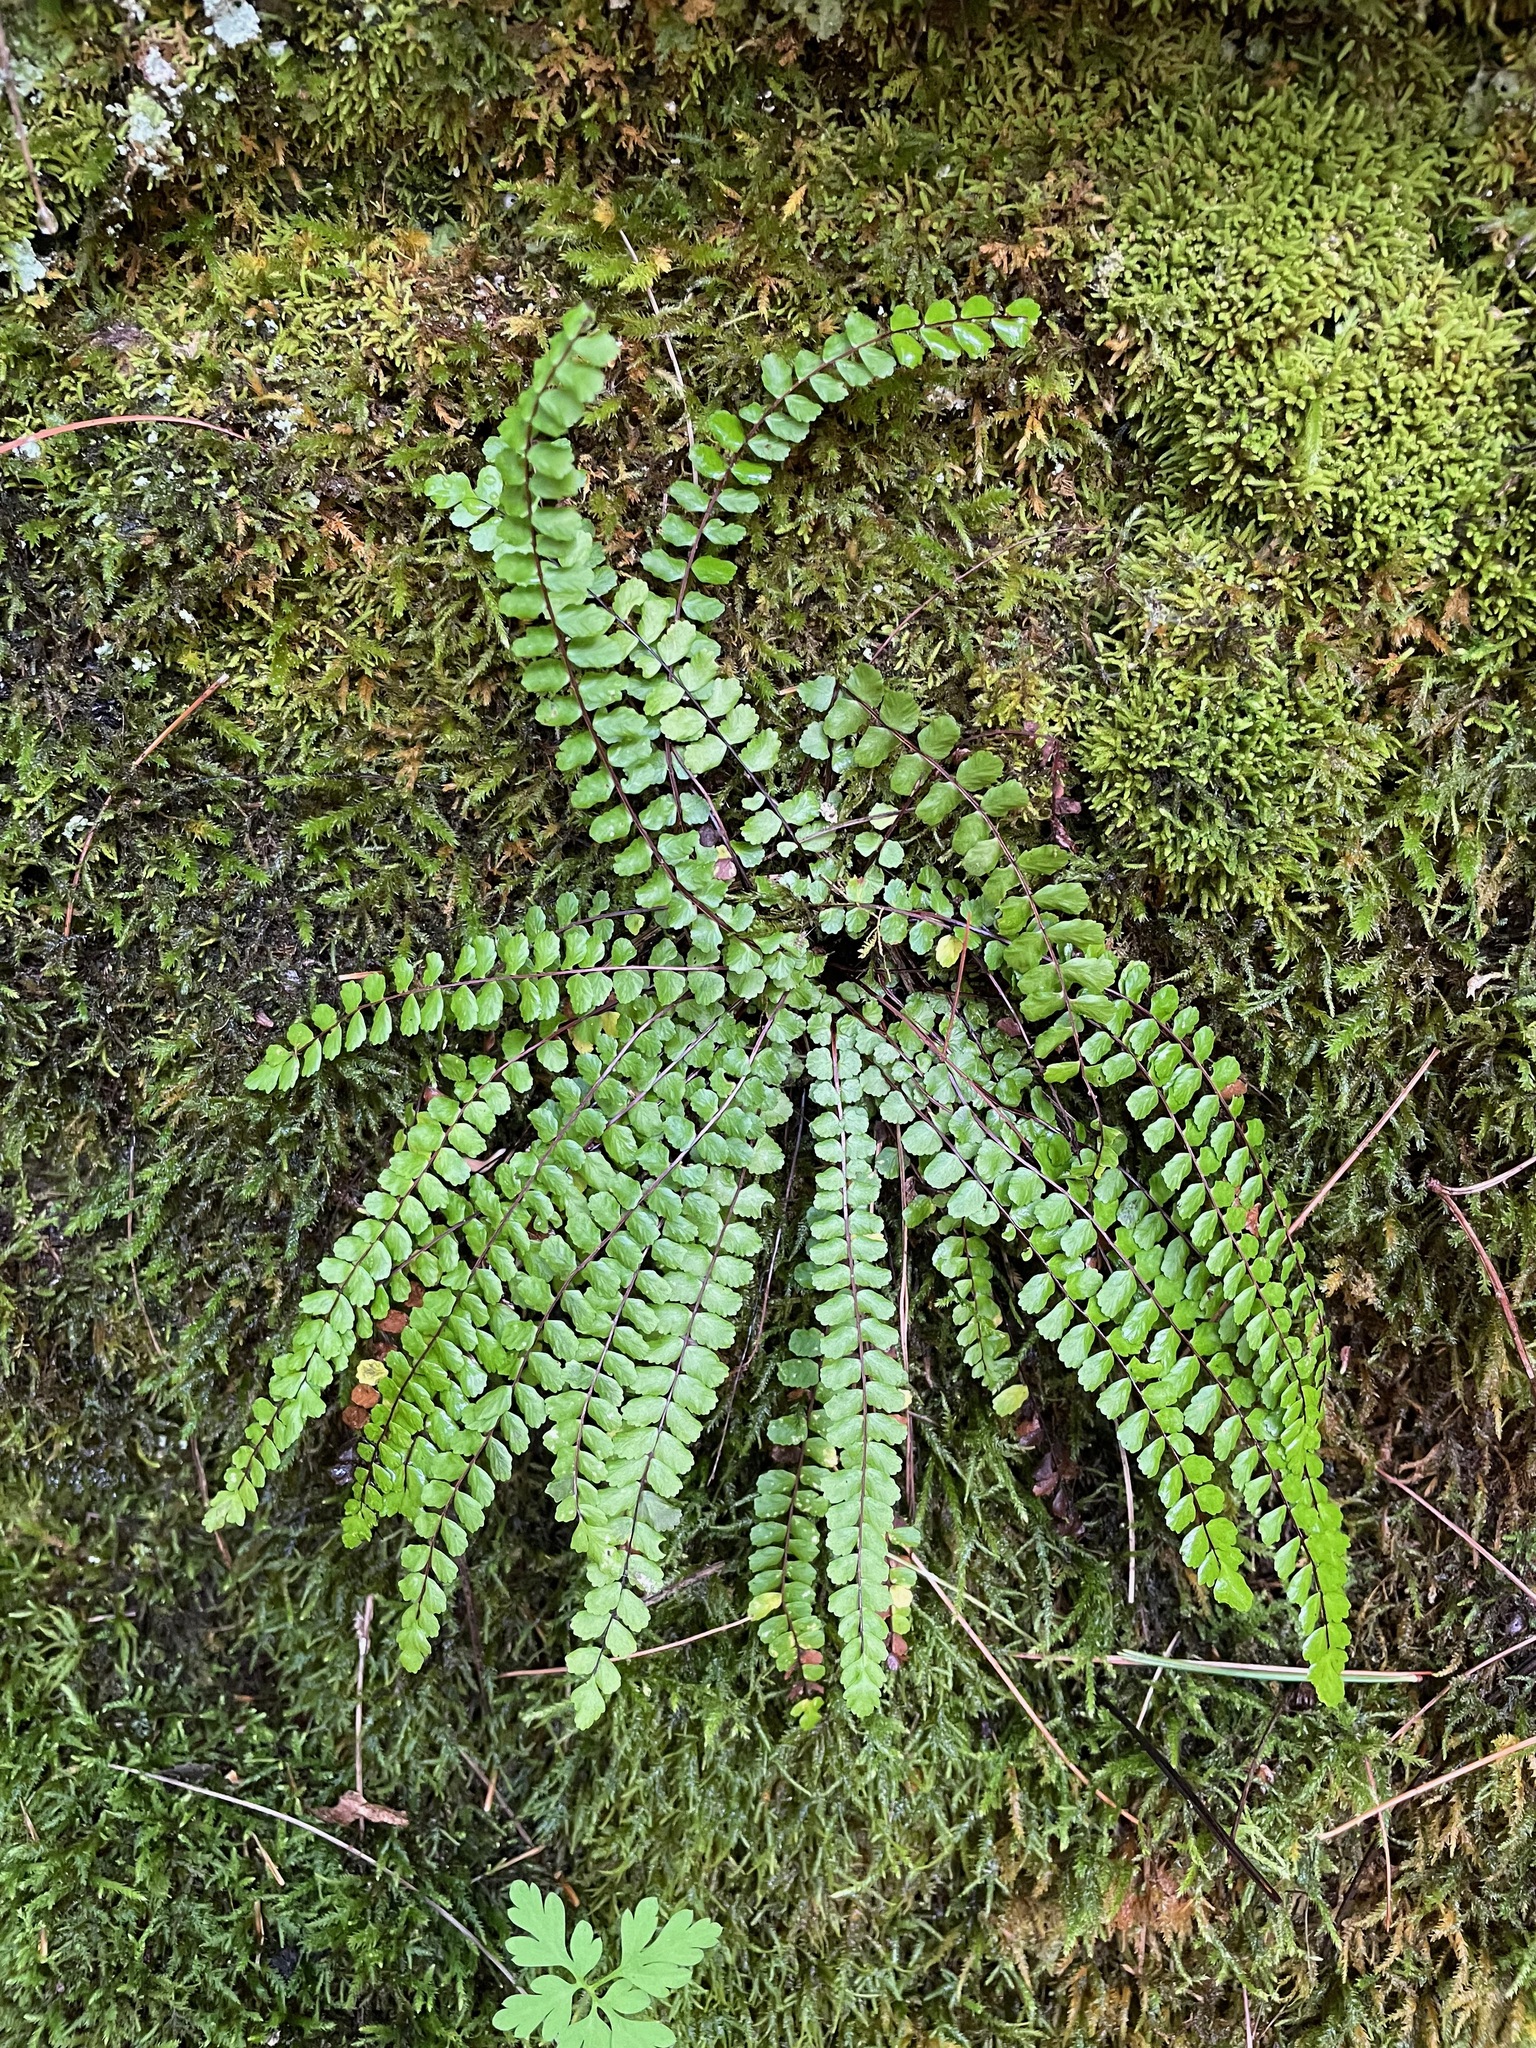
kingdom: Plantae
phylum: Tracheophyta
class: Polypodiopsida
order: Polypodiales
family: Aspleniaceae
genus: Asplenium
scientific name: Asplenium trichomanes
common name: Maidenhair spleenwort
